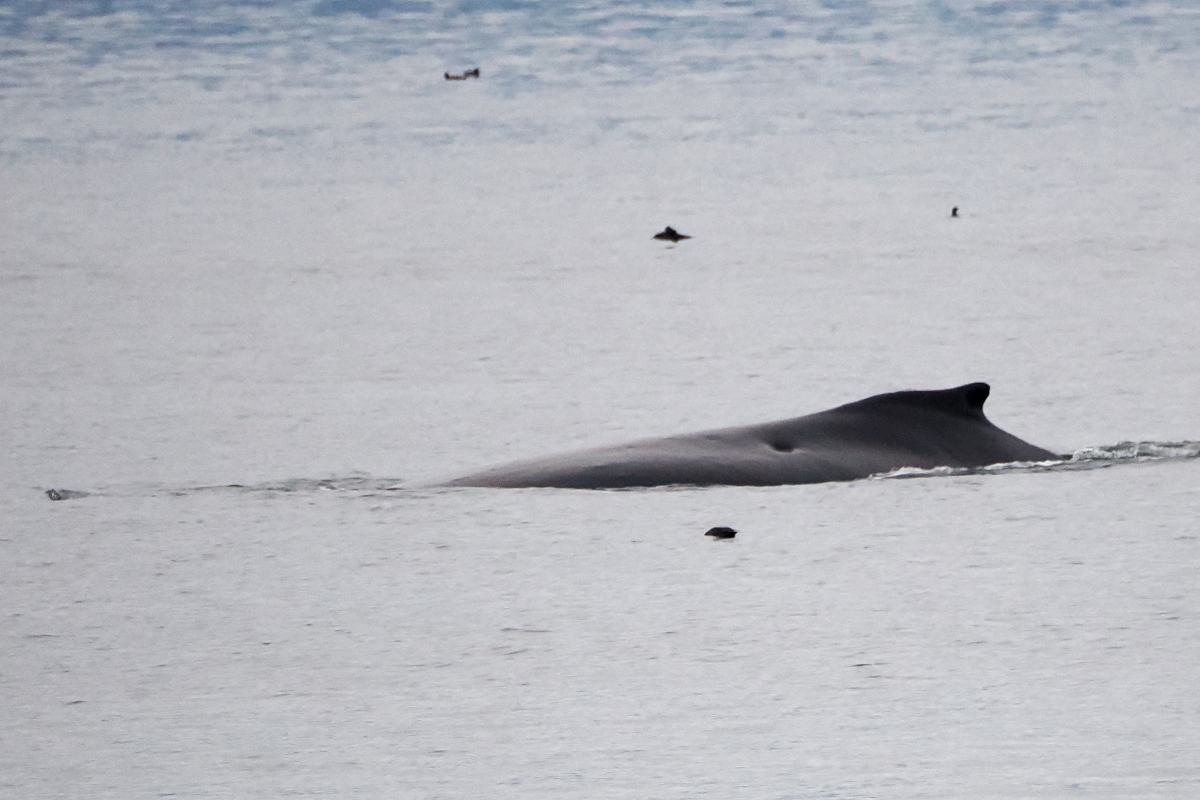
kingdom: Animalia
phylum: Chordata
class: Mammalia
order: Cetacea
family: Balaenopteridae
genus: Megaptera
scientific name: Megaptera novaeangliae
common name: Humpback whale
